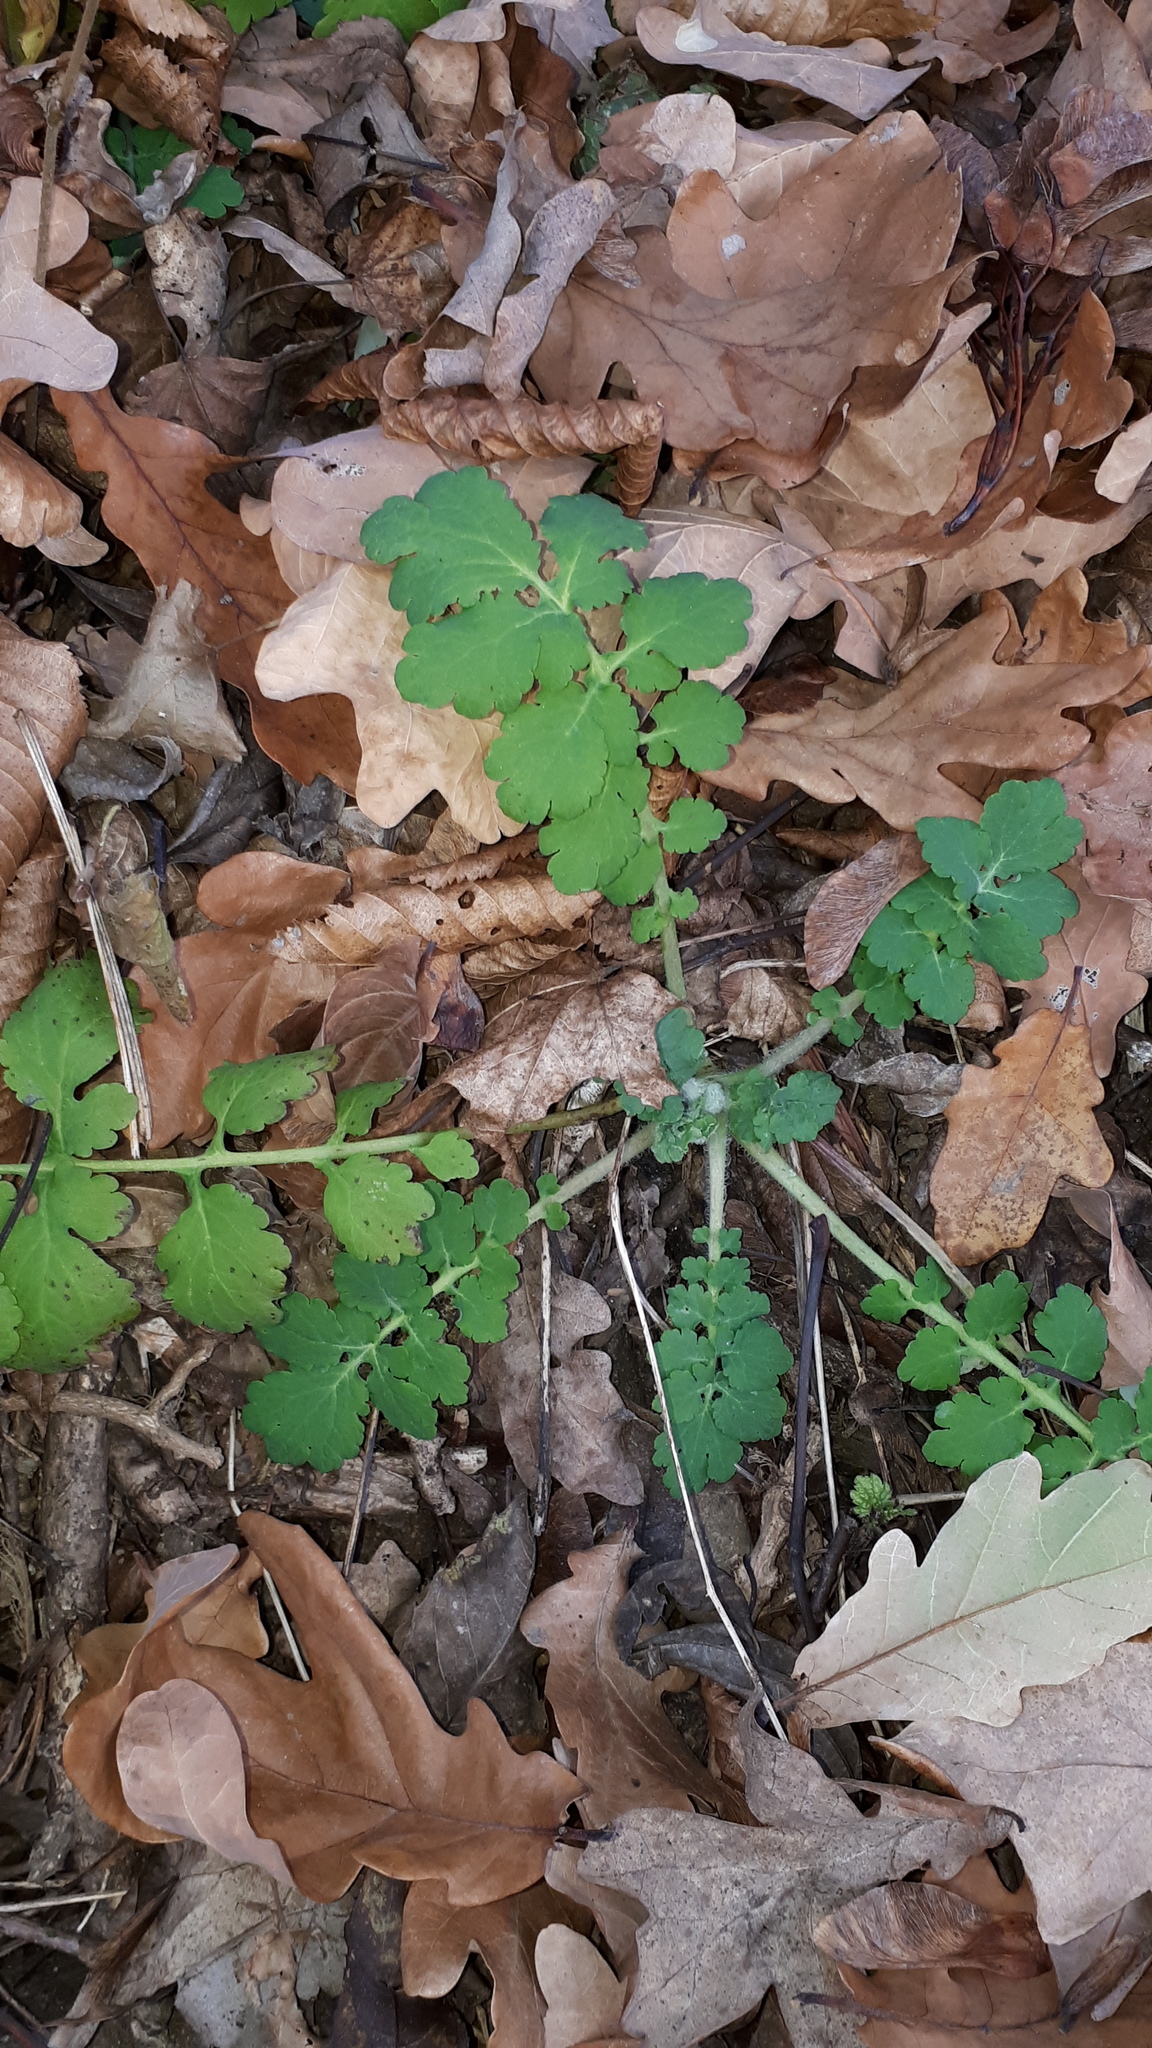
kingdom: Plantae
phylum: Tracheophyta
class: Magnoliopsida
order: Ranunculales
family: Papaveraceae
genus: Chelidonium
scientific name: Chelidonium majus
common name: Greater celandine
